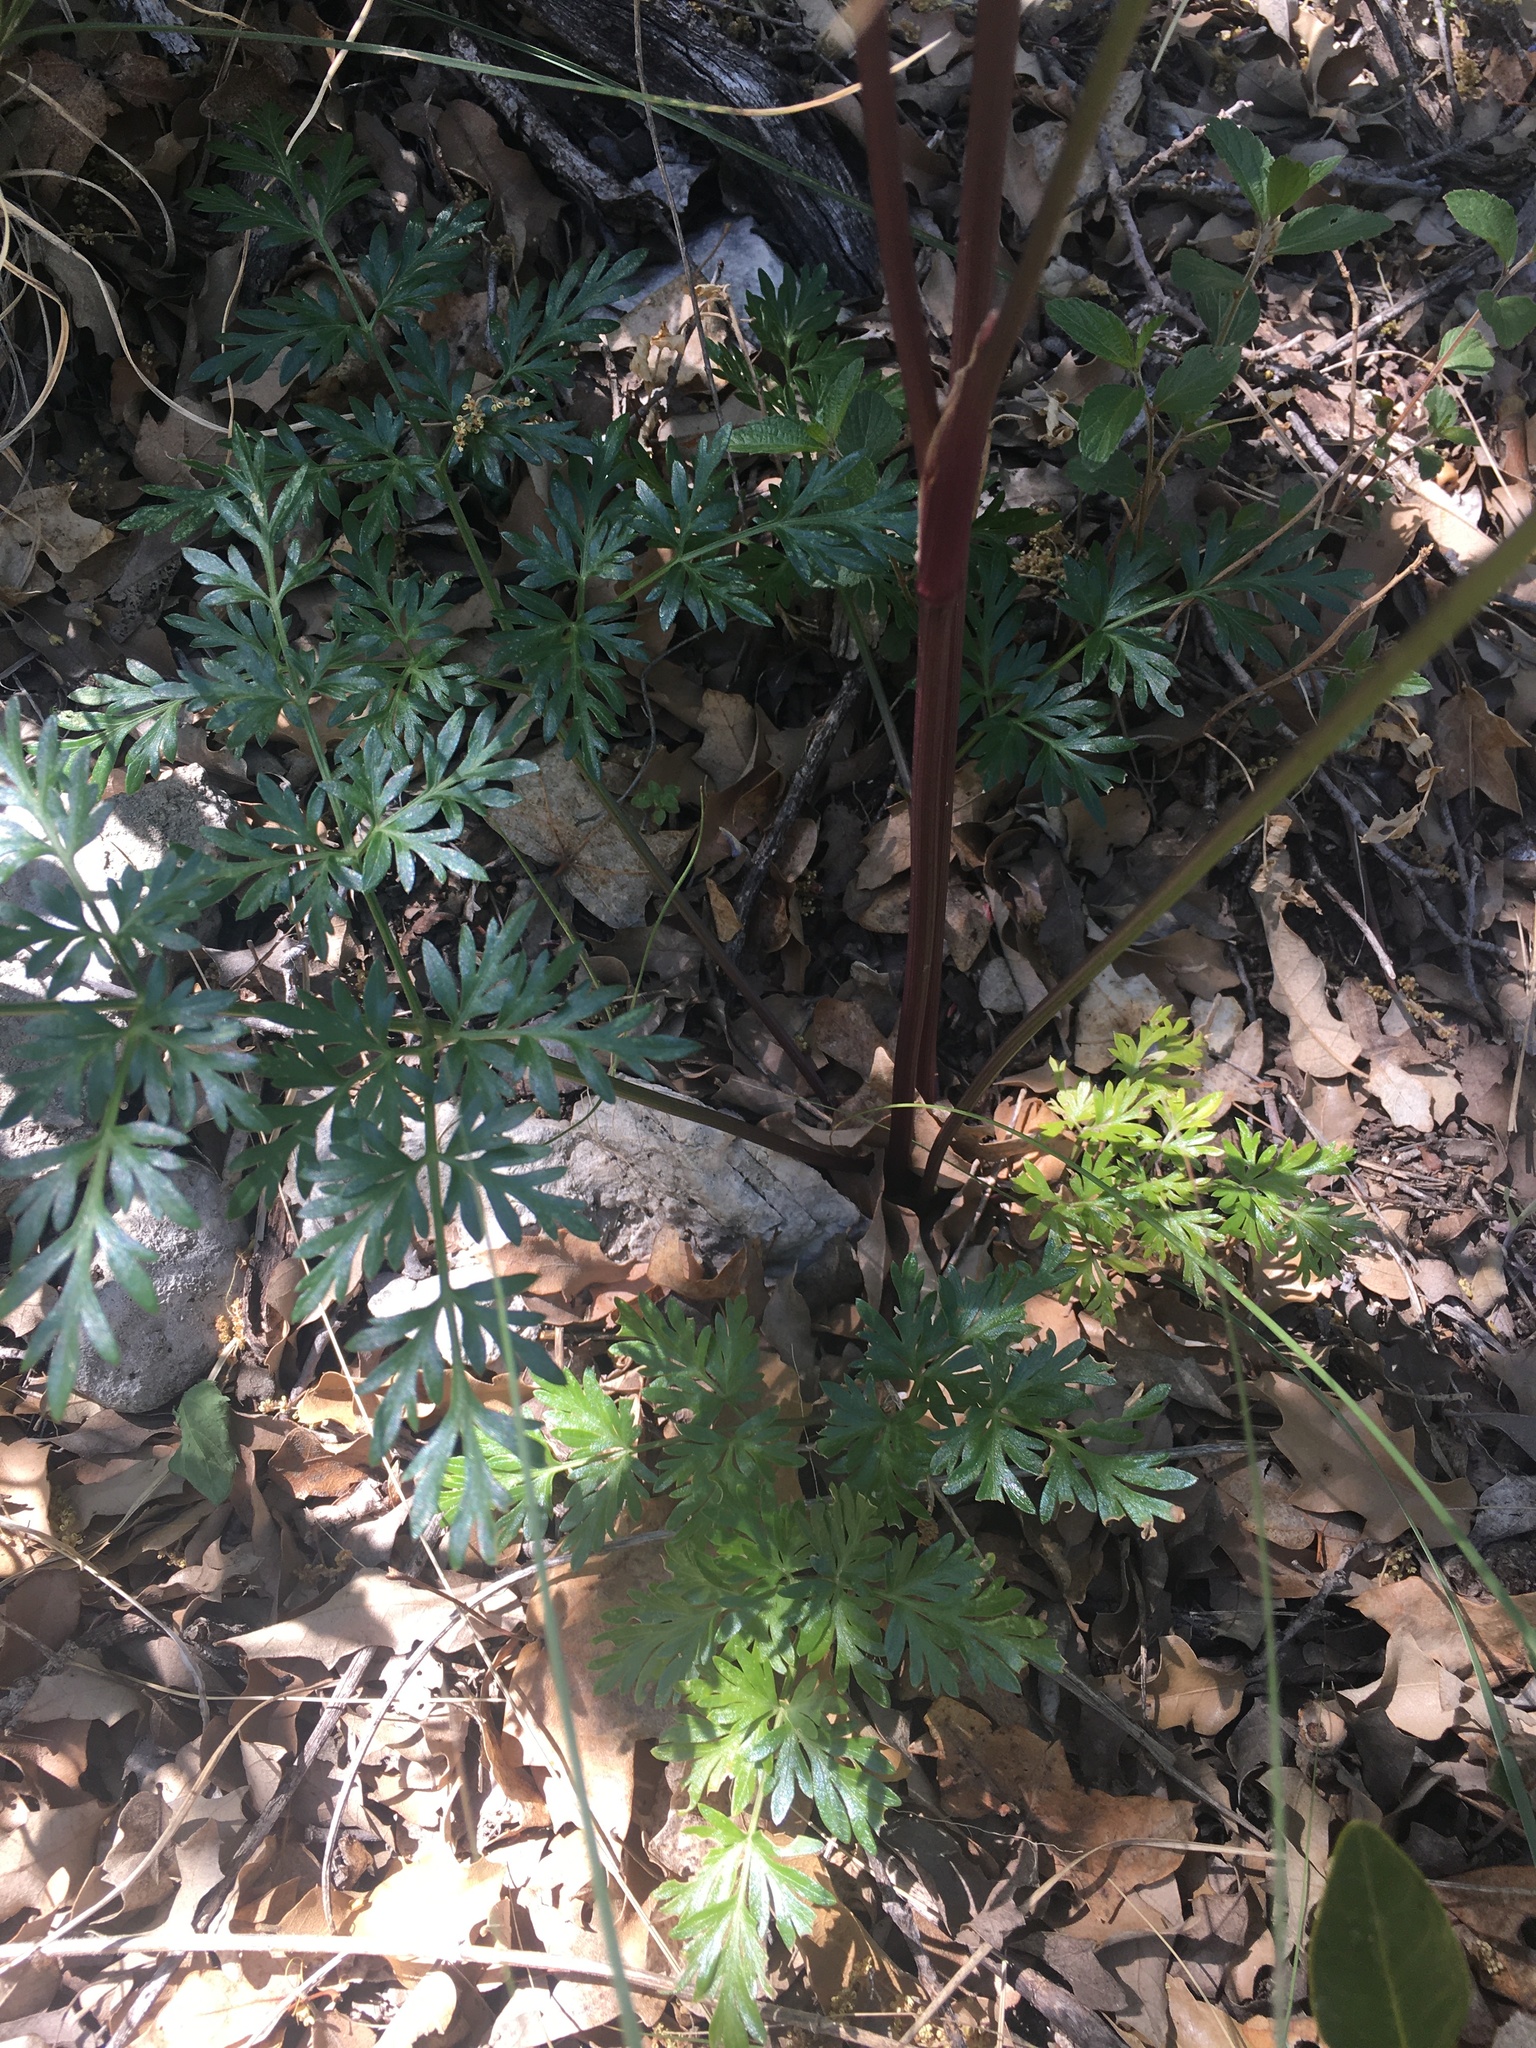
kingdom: Plantae
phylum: Tracheophyta
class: Magnoliopsida
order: Apiales
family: Apiaceae
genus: Pseudocymopterus
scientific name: Pseudocymopterus longiradiatus
